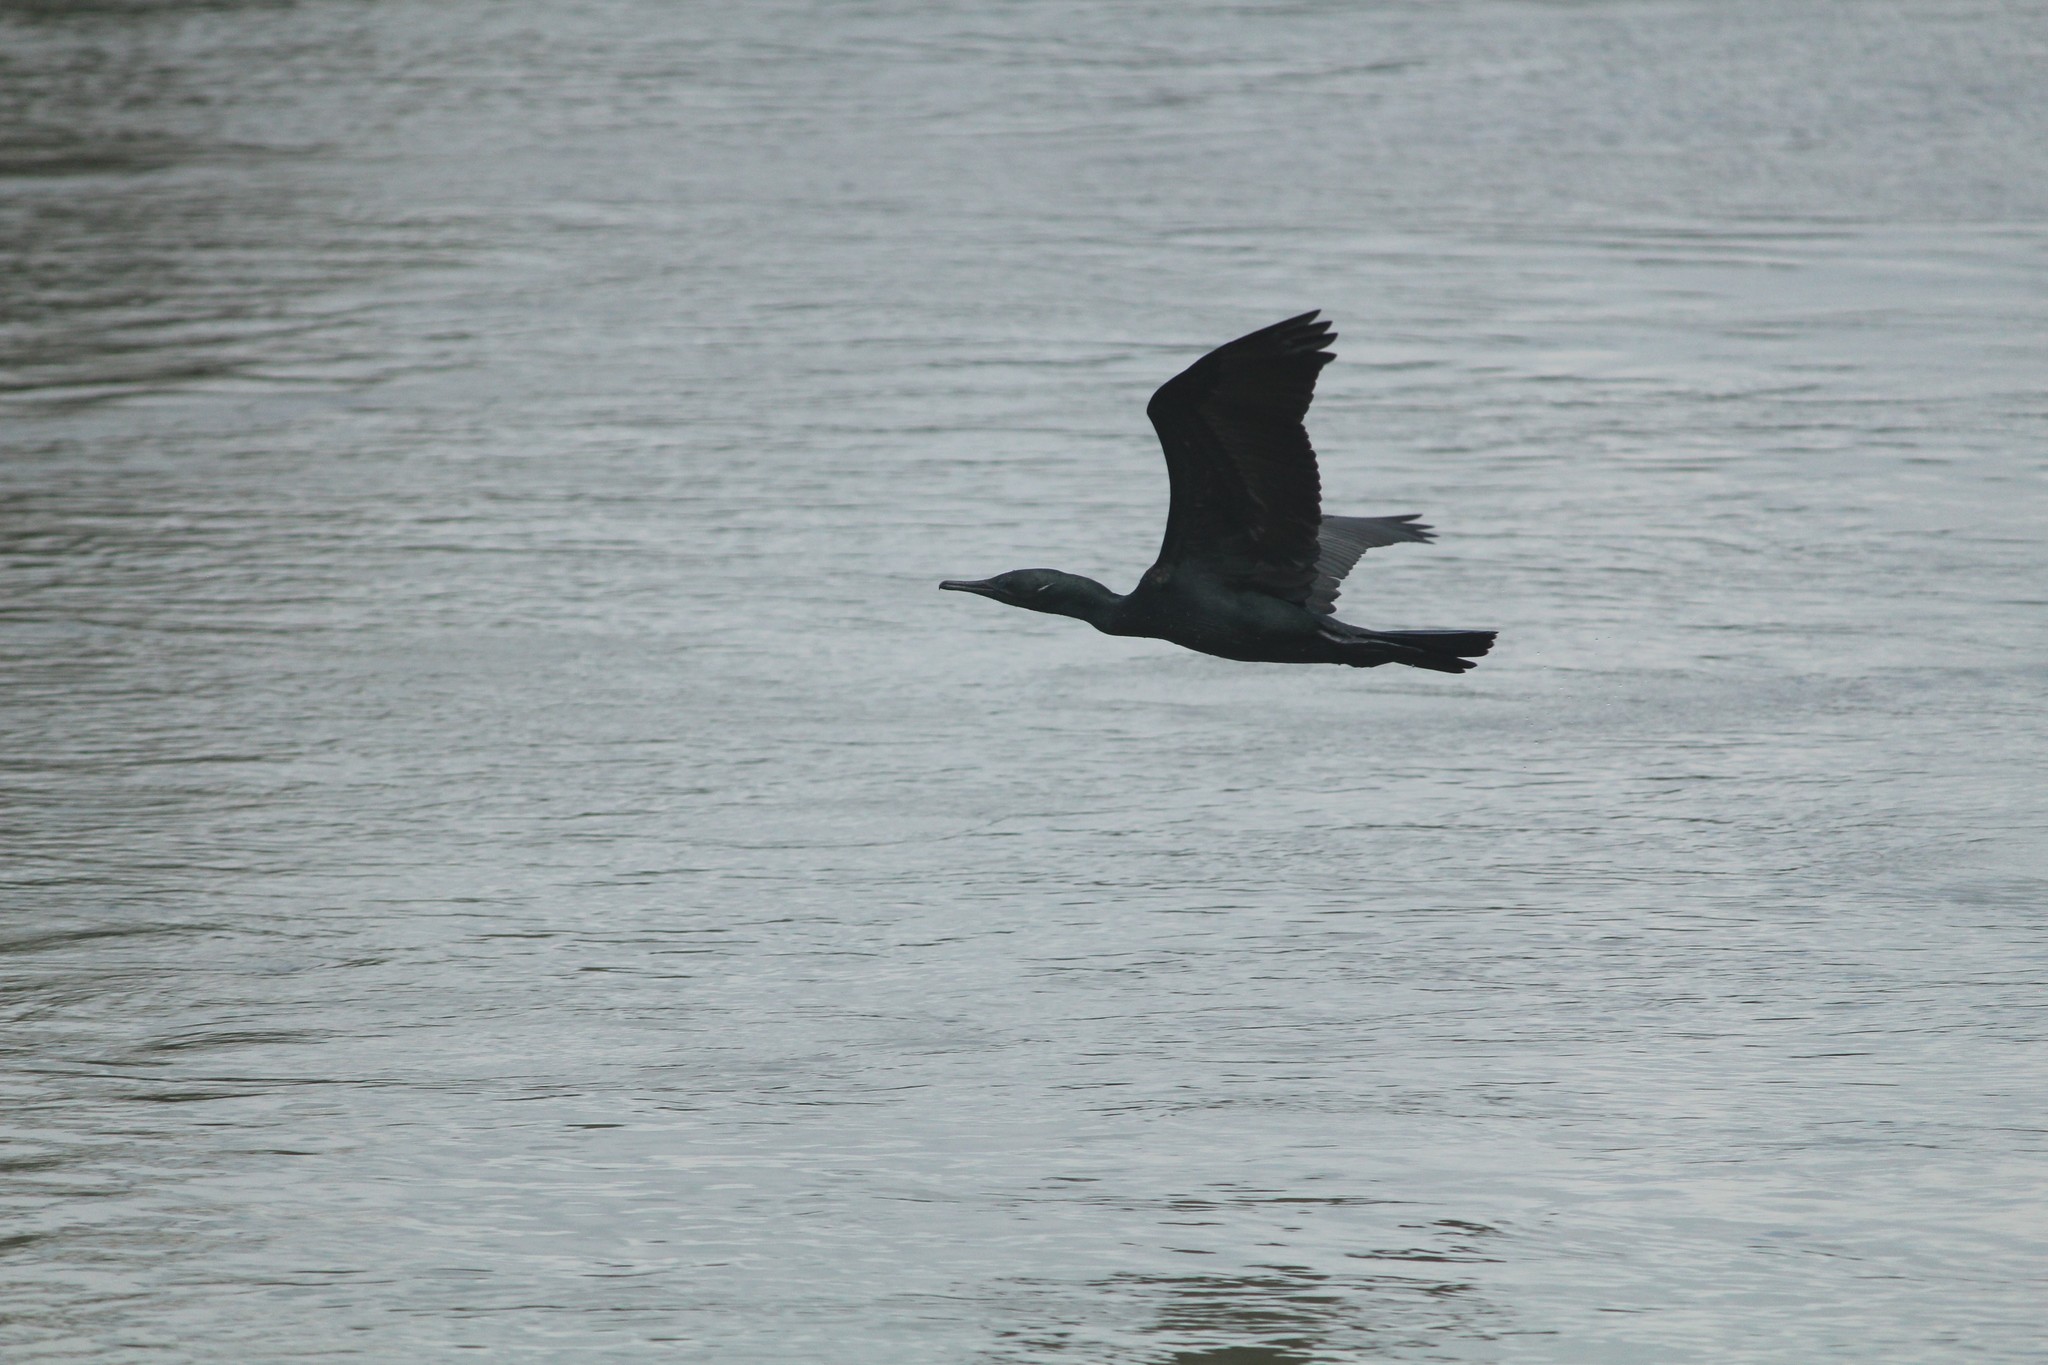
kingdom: Animalia
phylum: Chordata
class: Aves
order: Suliformes
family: Phalacrocoracidae
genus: Phalacrocorax
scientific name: Phalacrocorax fuscicollis
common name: Indian cormorant
